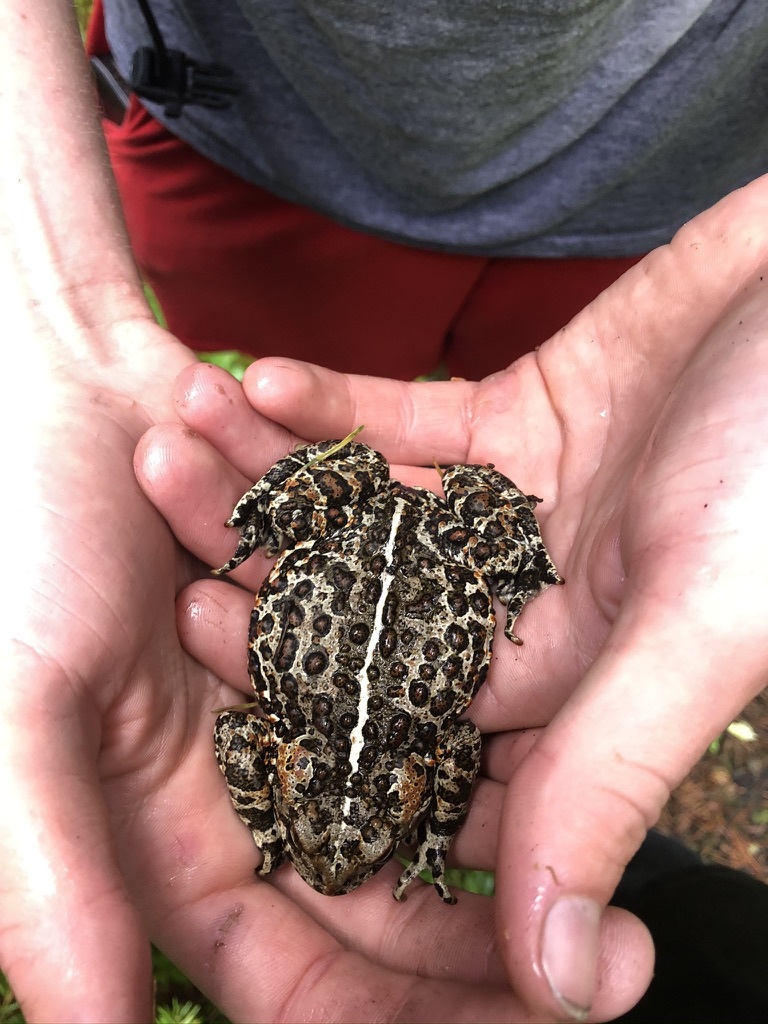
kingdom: Animalia
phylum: Chordata
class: Amphibia
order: Anura
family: Bufonidae
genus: Anaxyrus
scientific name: Anaxyrus boreas
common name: Western toad
